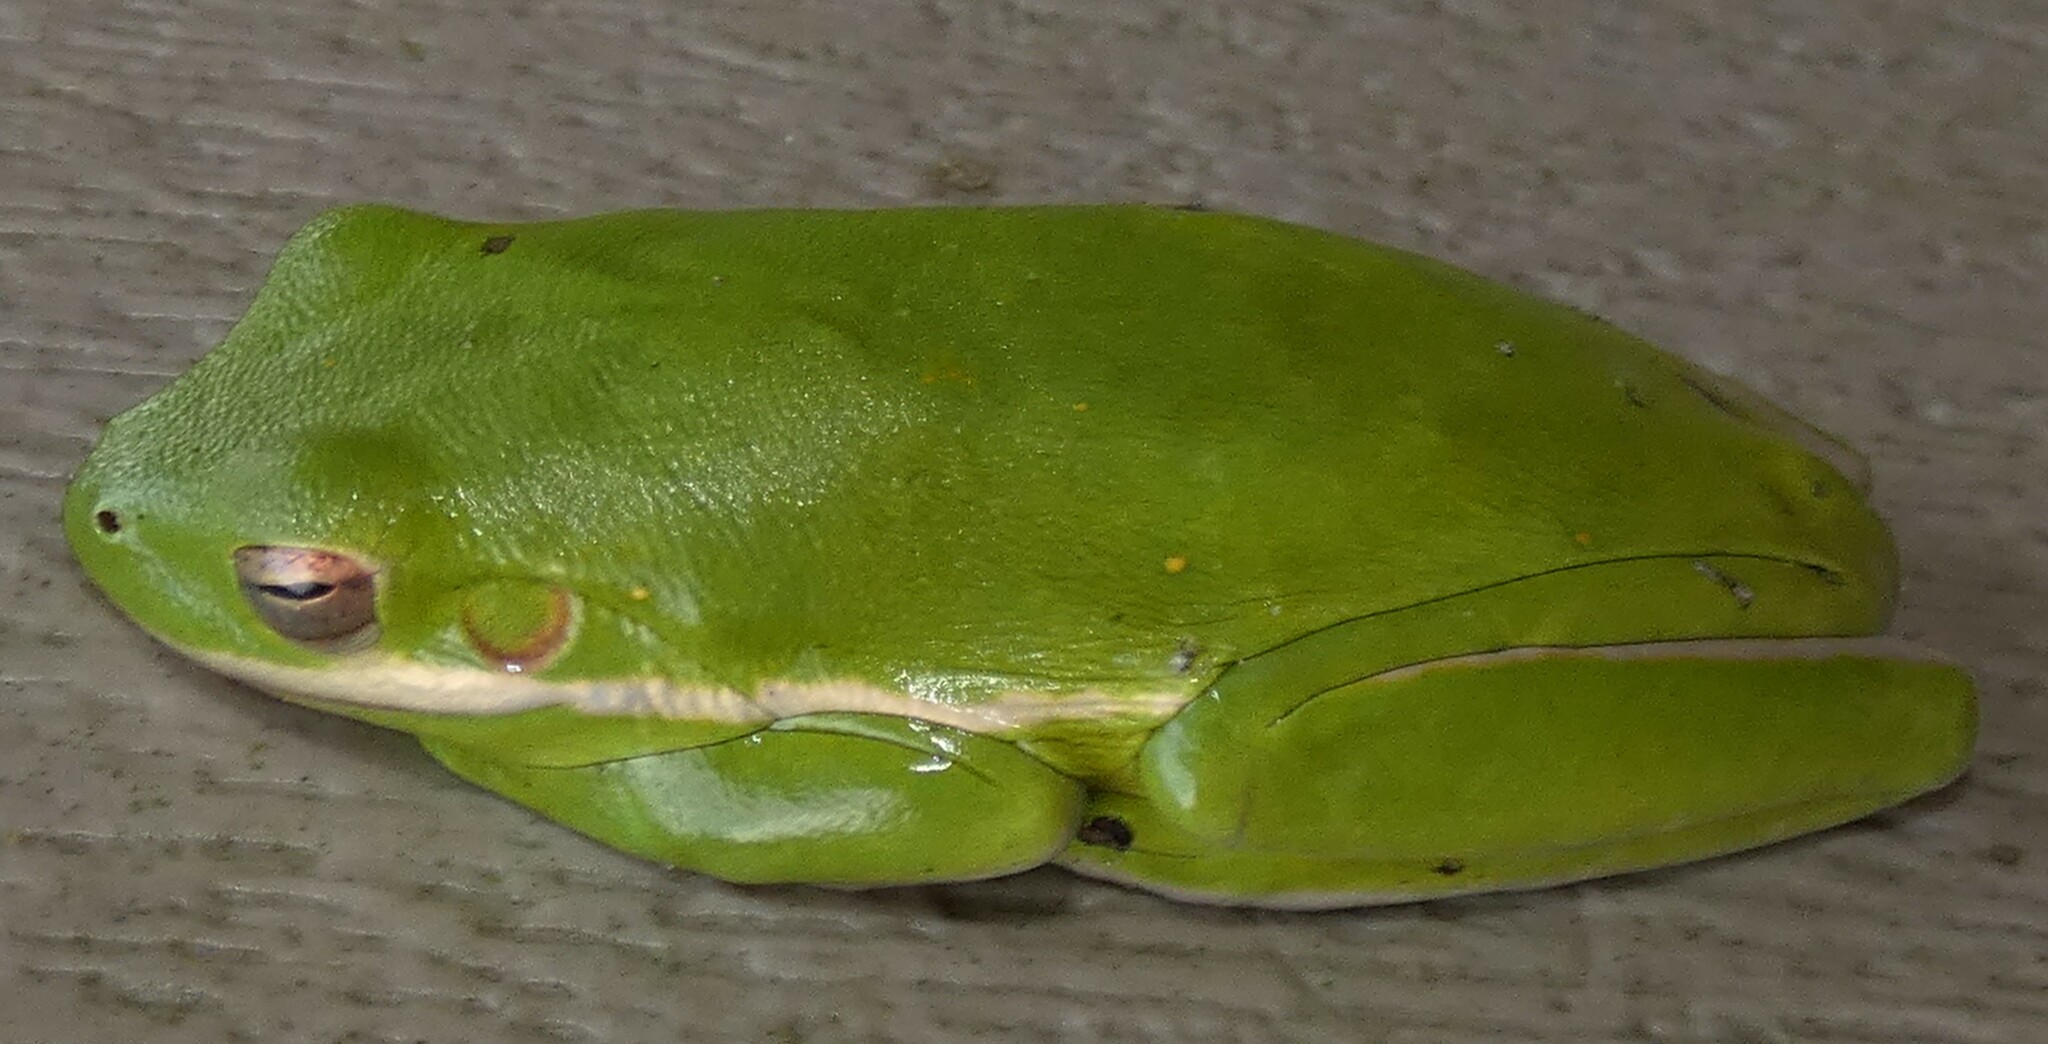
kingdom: Animalia
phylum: Chordata
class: Amphibia
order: Anura
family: Hylidae
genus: Dryophytes
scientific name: Dryophytes cinereus
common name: Green treefrog
